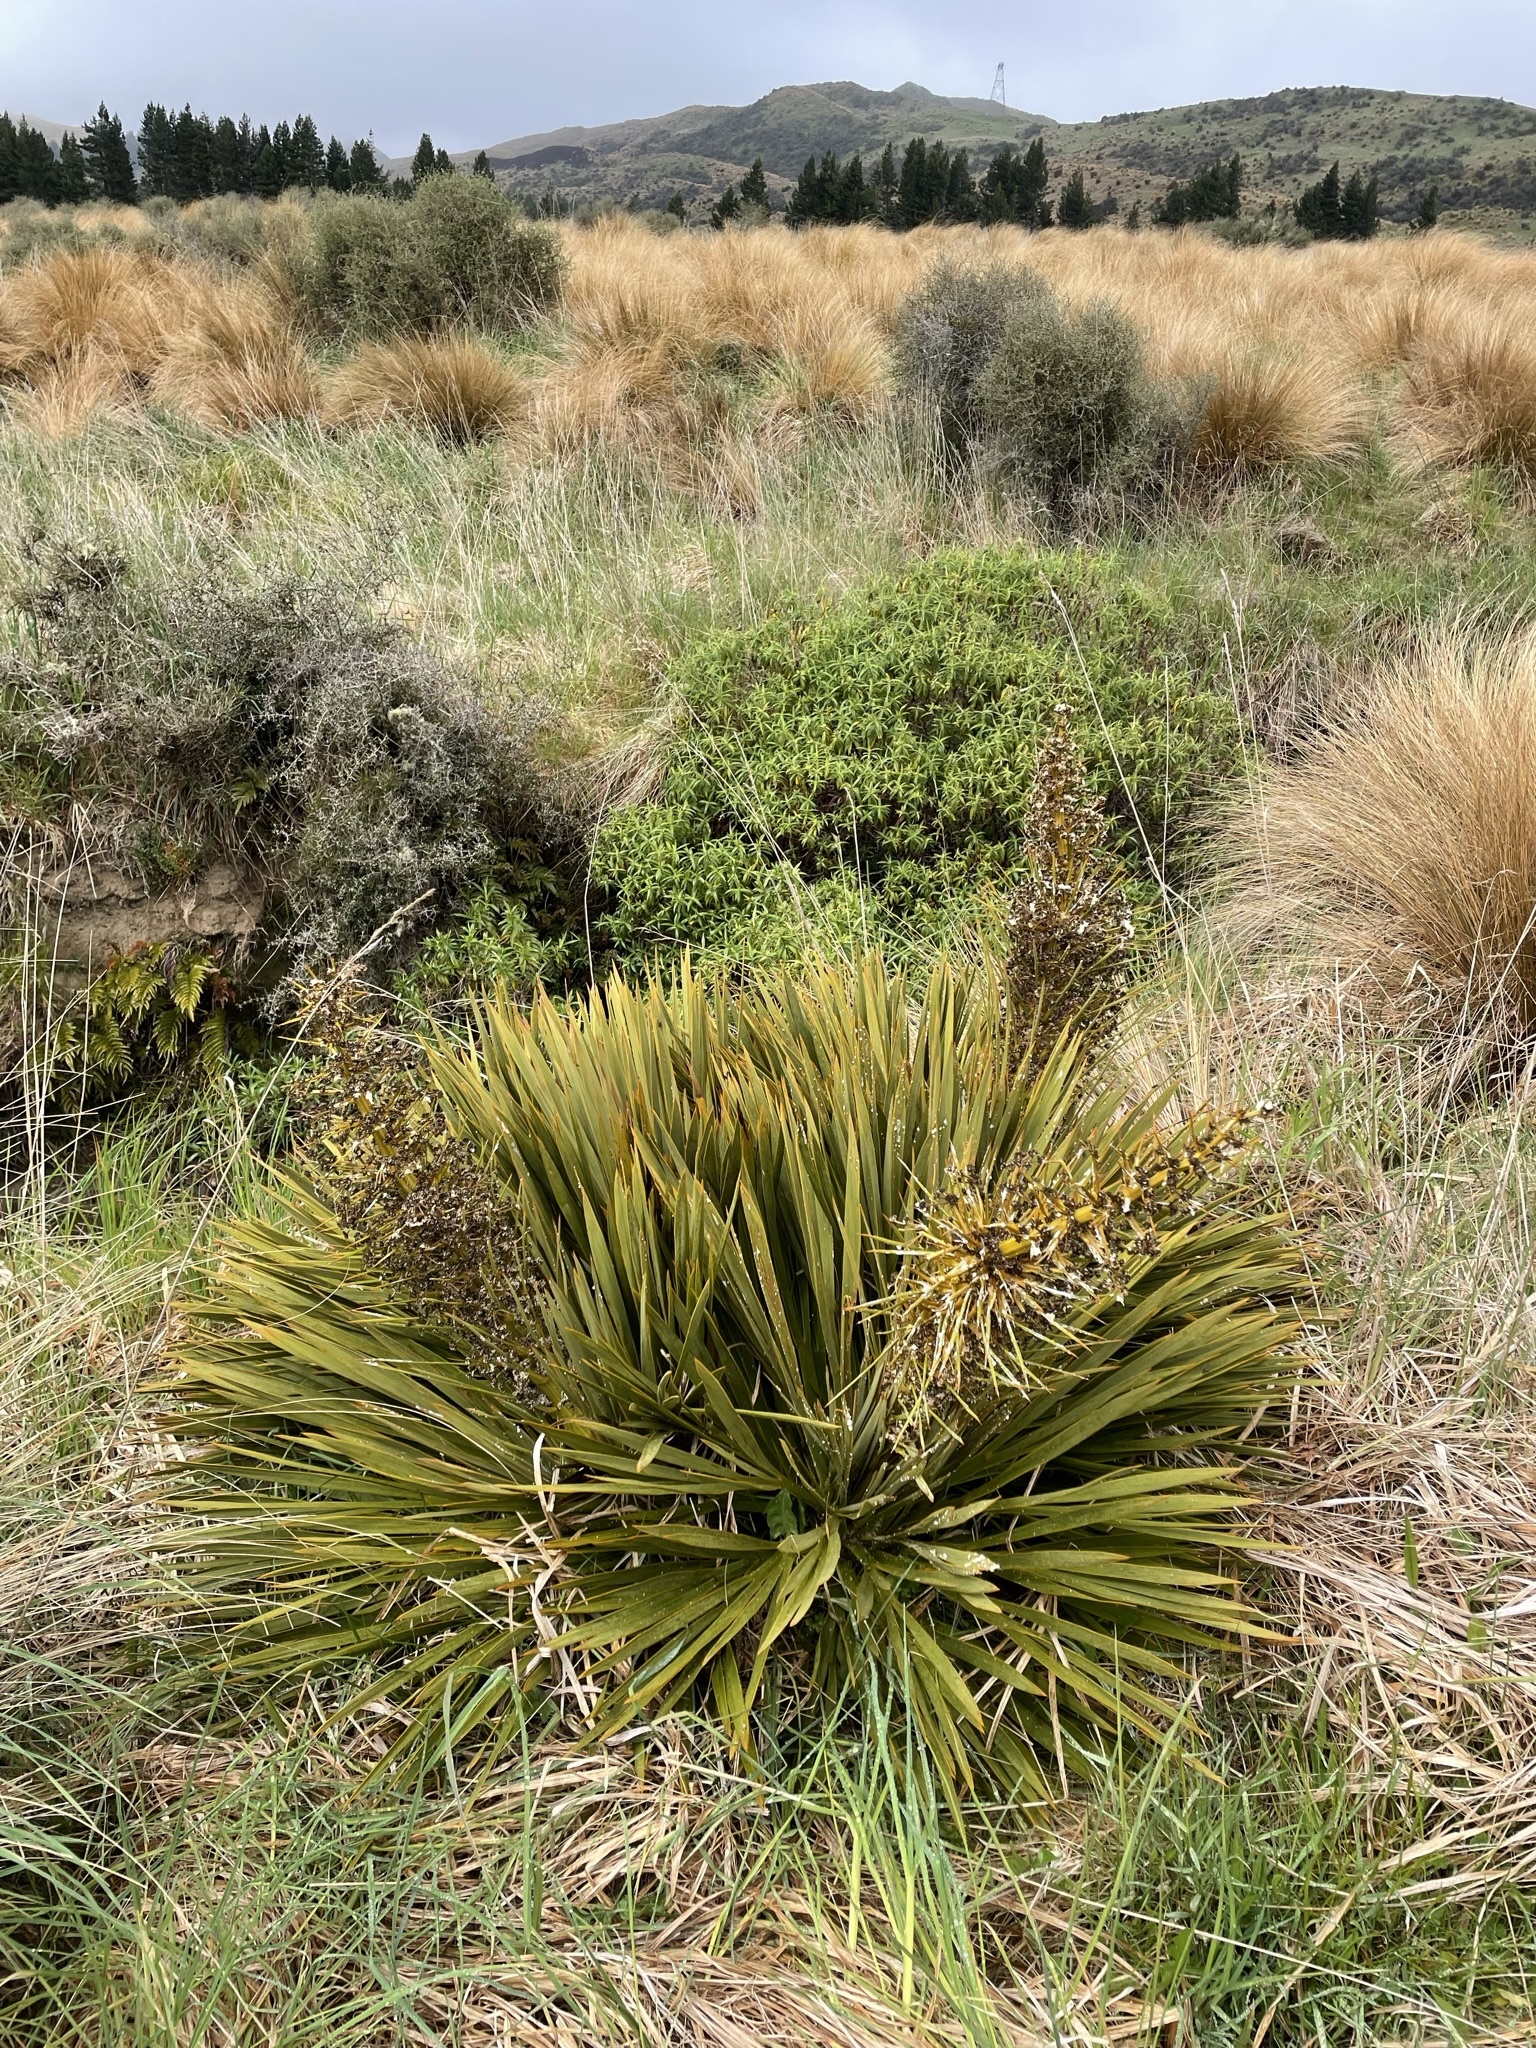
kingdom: Plantae
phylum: Tracheophyta
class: Magnoliopsida
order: Apiales
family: Apiaceae
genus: Aciphylla
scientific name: Aciphylla aurea
